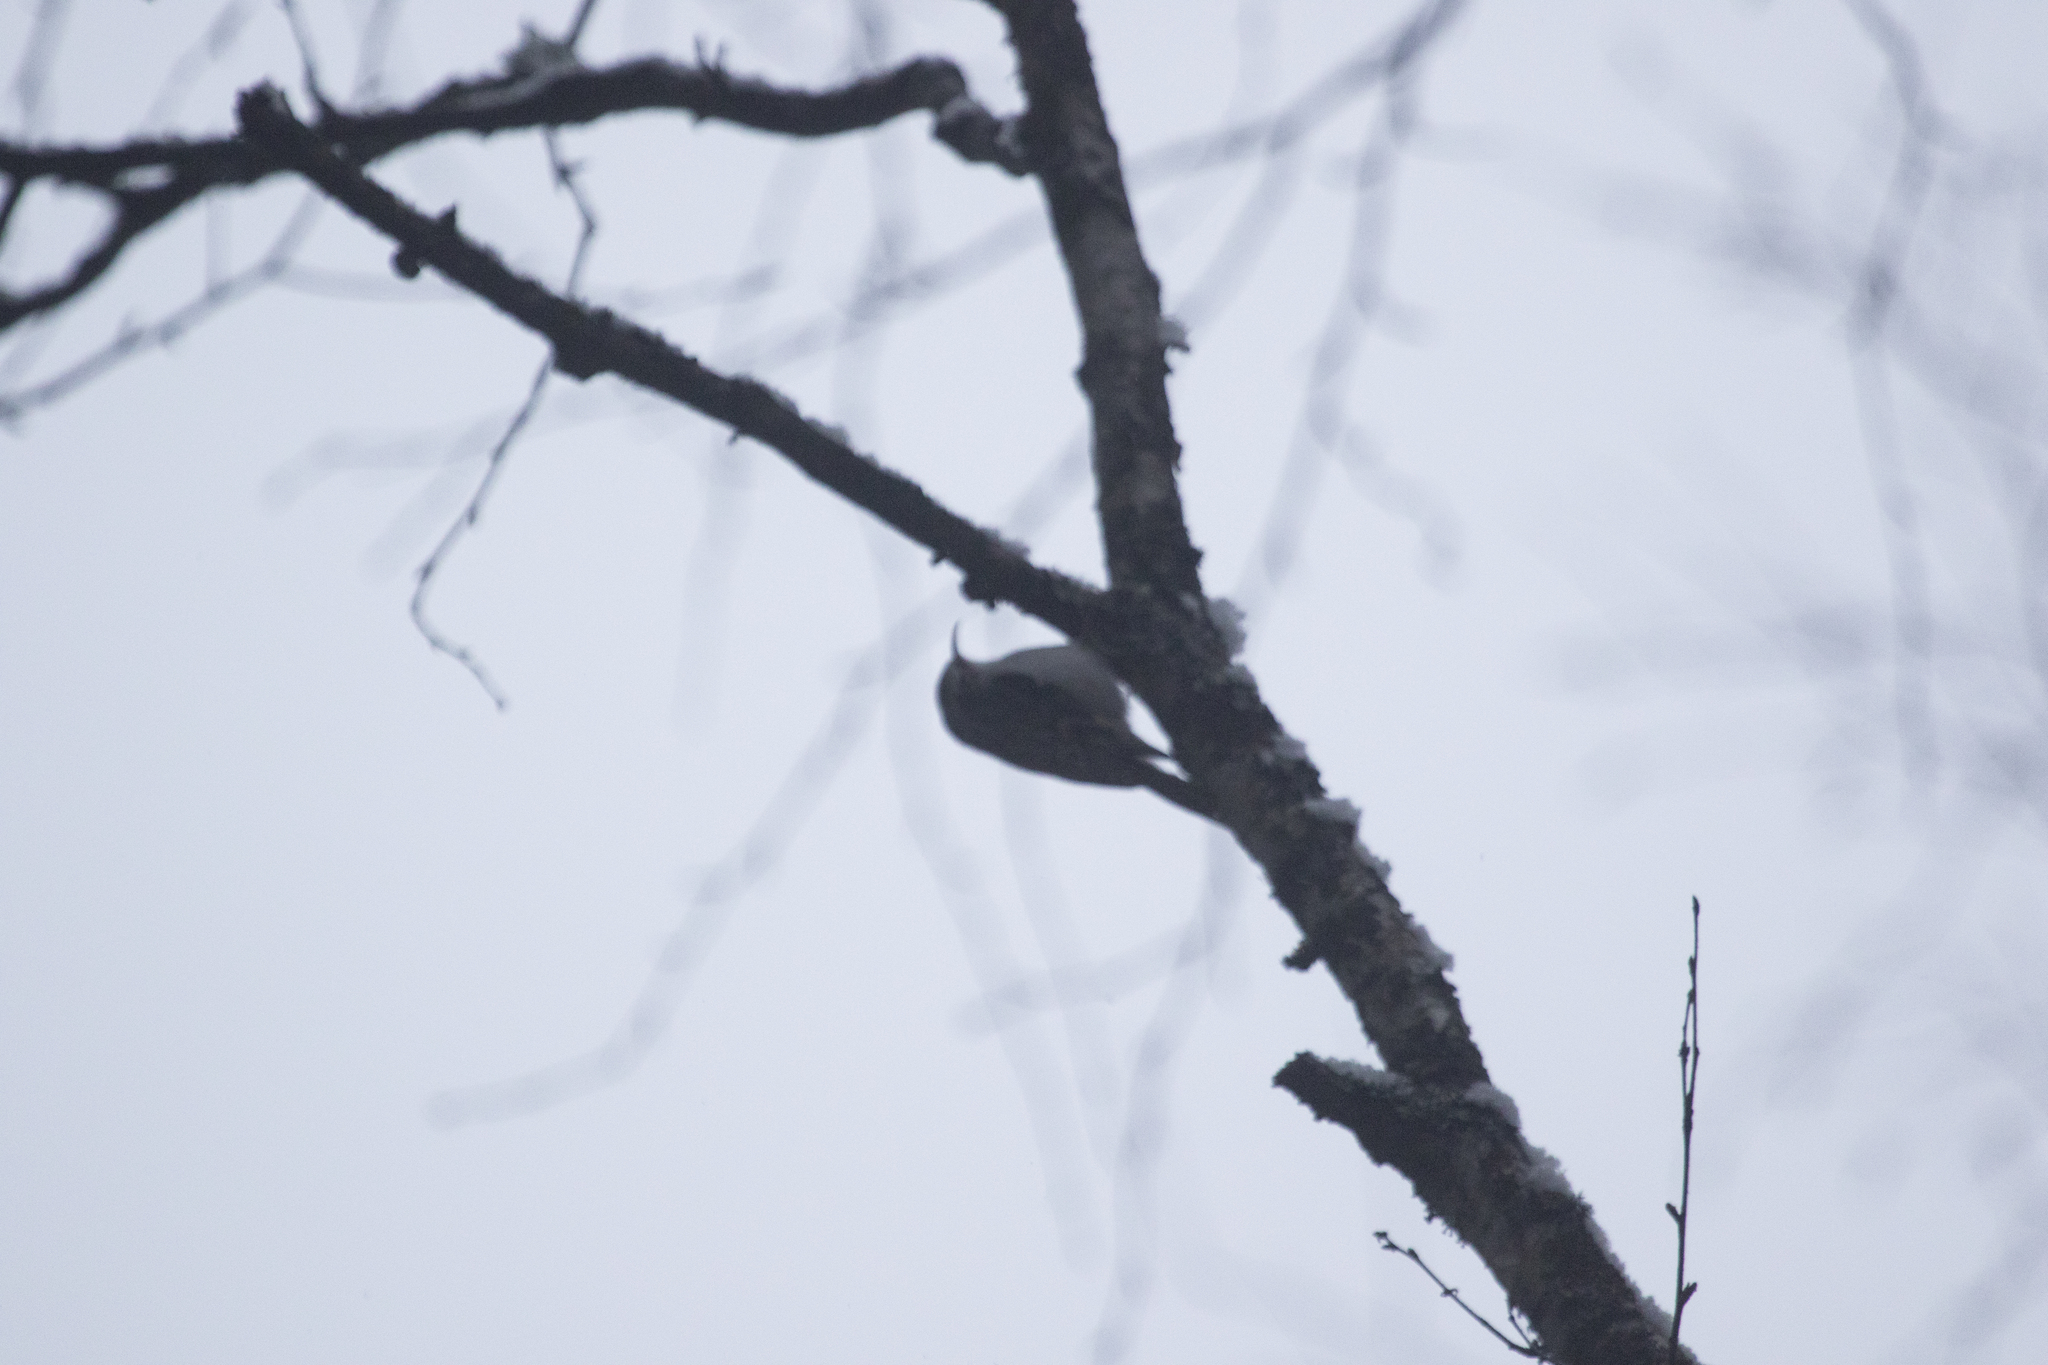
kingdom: Animalia
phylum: Chordata
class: Aves
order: Passeriformes
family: Certhiidae
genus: Certhia
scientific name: Certhia familiaris
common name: Eurasian treecreeper
